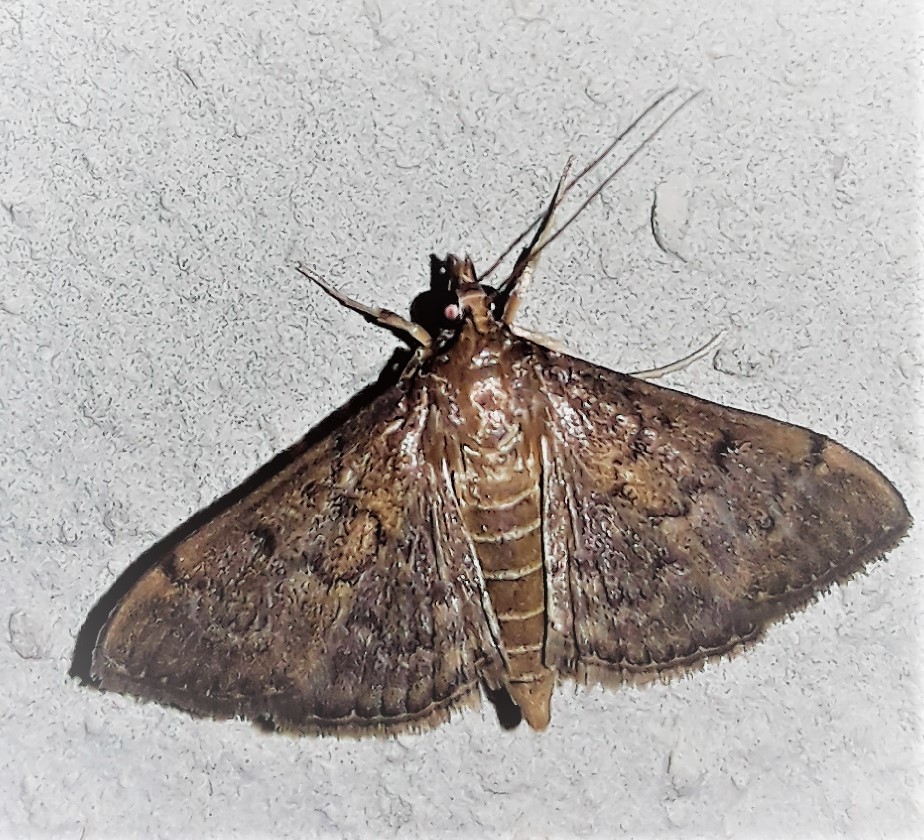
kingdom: Animalia
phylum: Arthropoda
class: Insecta
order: Lepidoptera
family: Crambidae
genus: Herpetogramma
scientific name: Herpetogramma phaeopteralis
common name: Dusky herpetogramma moth
